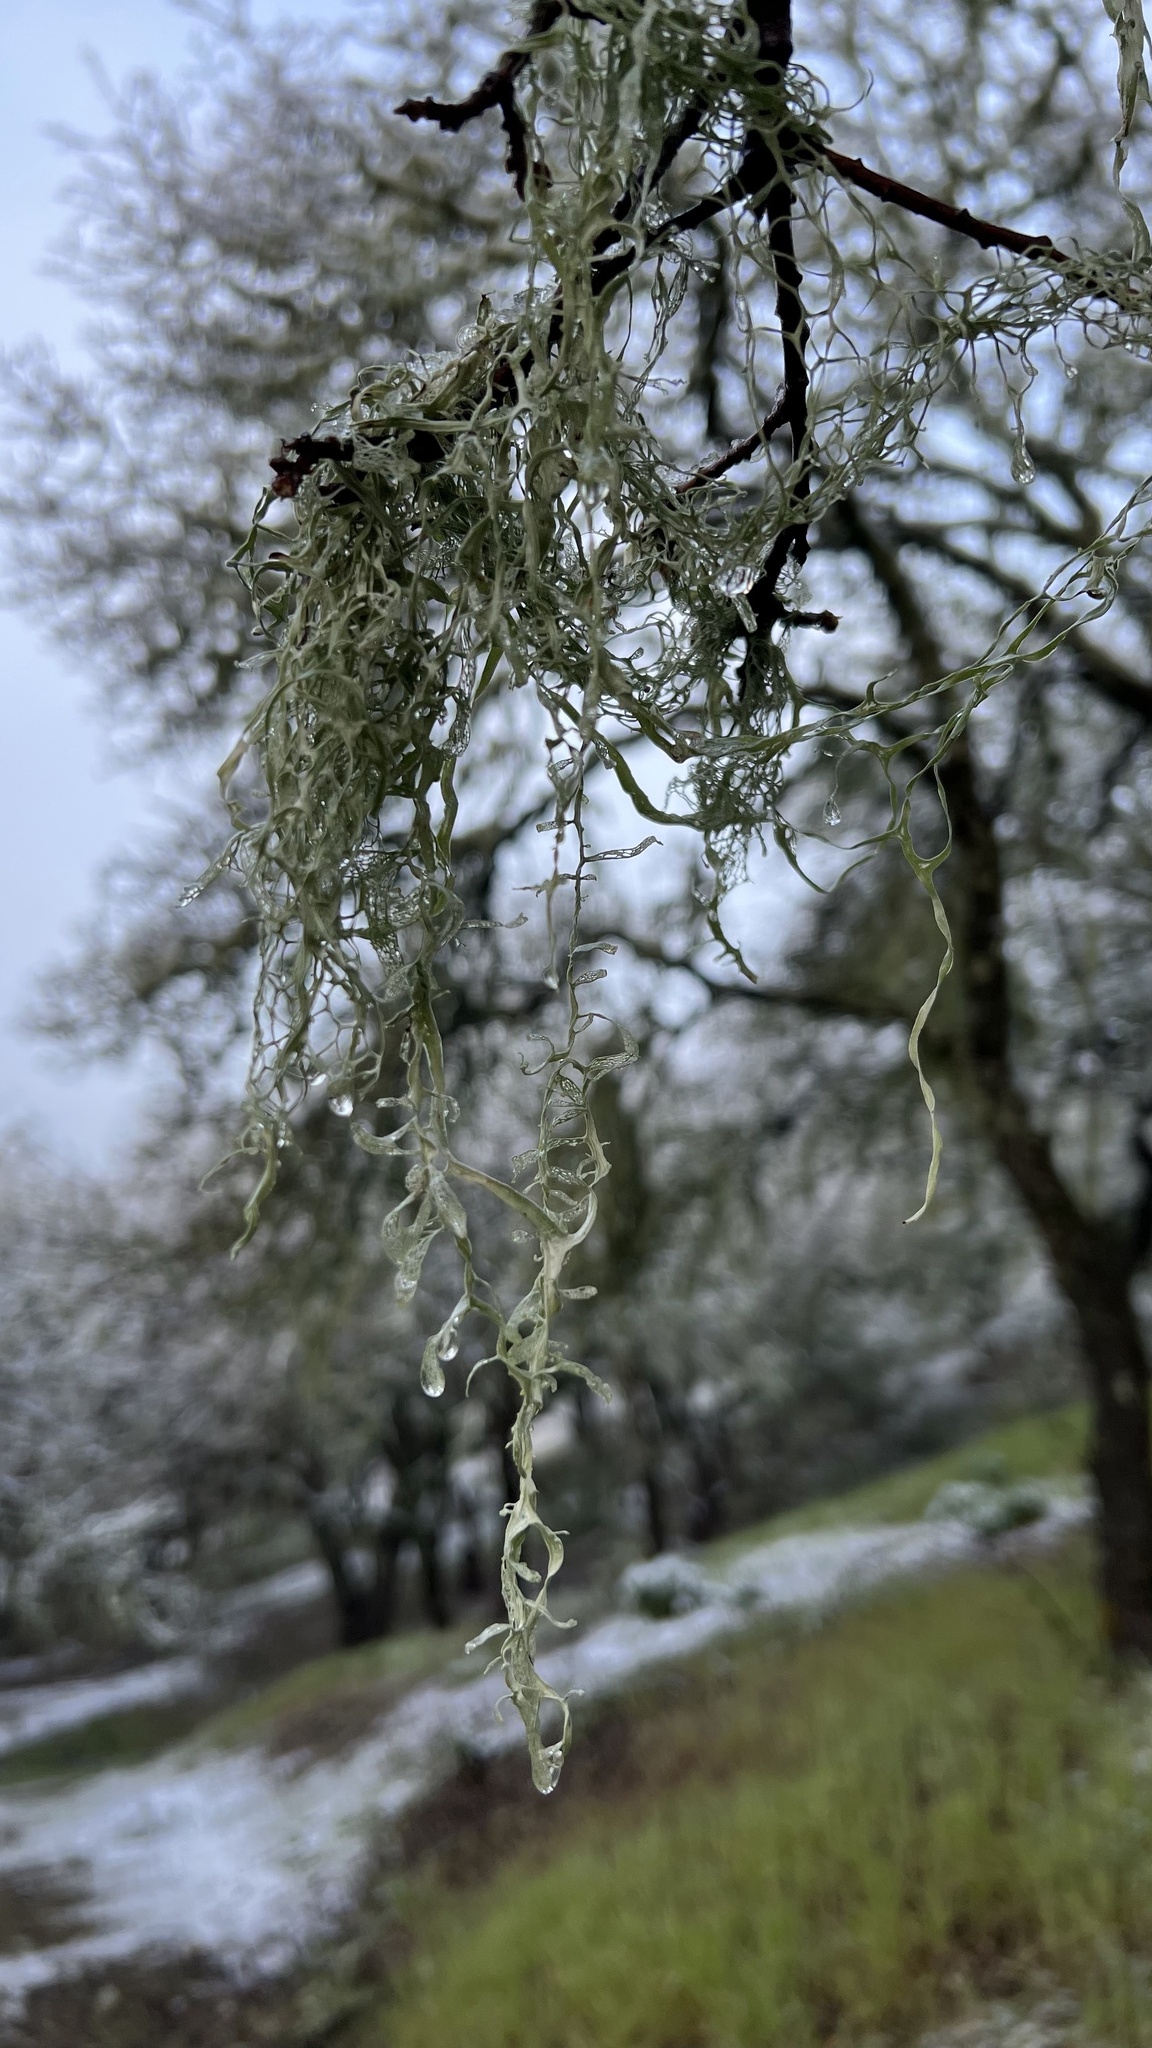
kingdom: Fungi
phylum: Ascomycota
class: Lecanoromycetes
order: Lecanorales
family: Ramalinaceae
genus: Ramalina
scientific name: Ramalina menziesii
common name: Lace lichen
